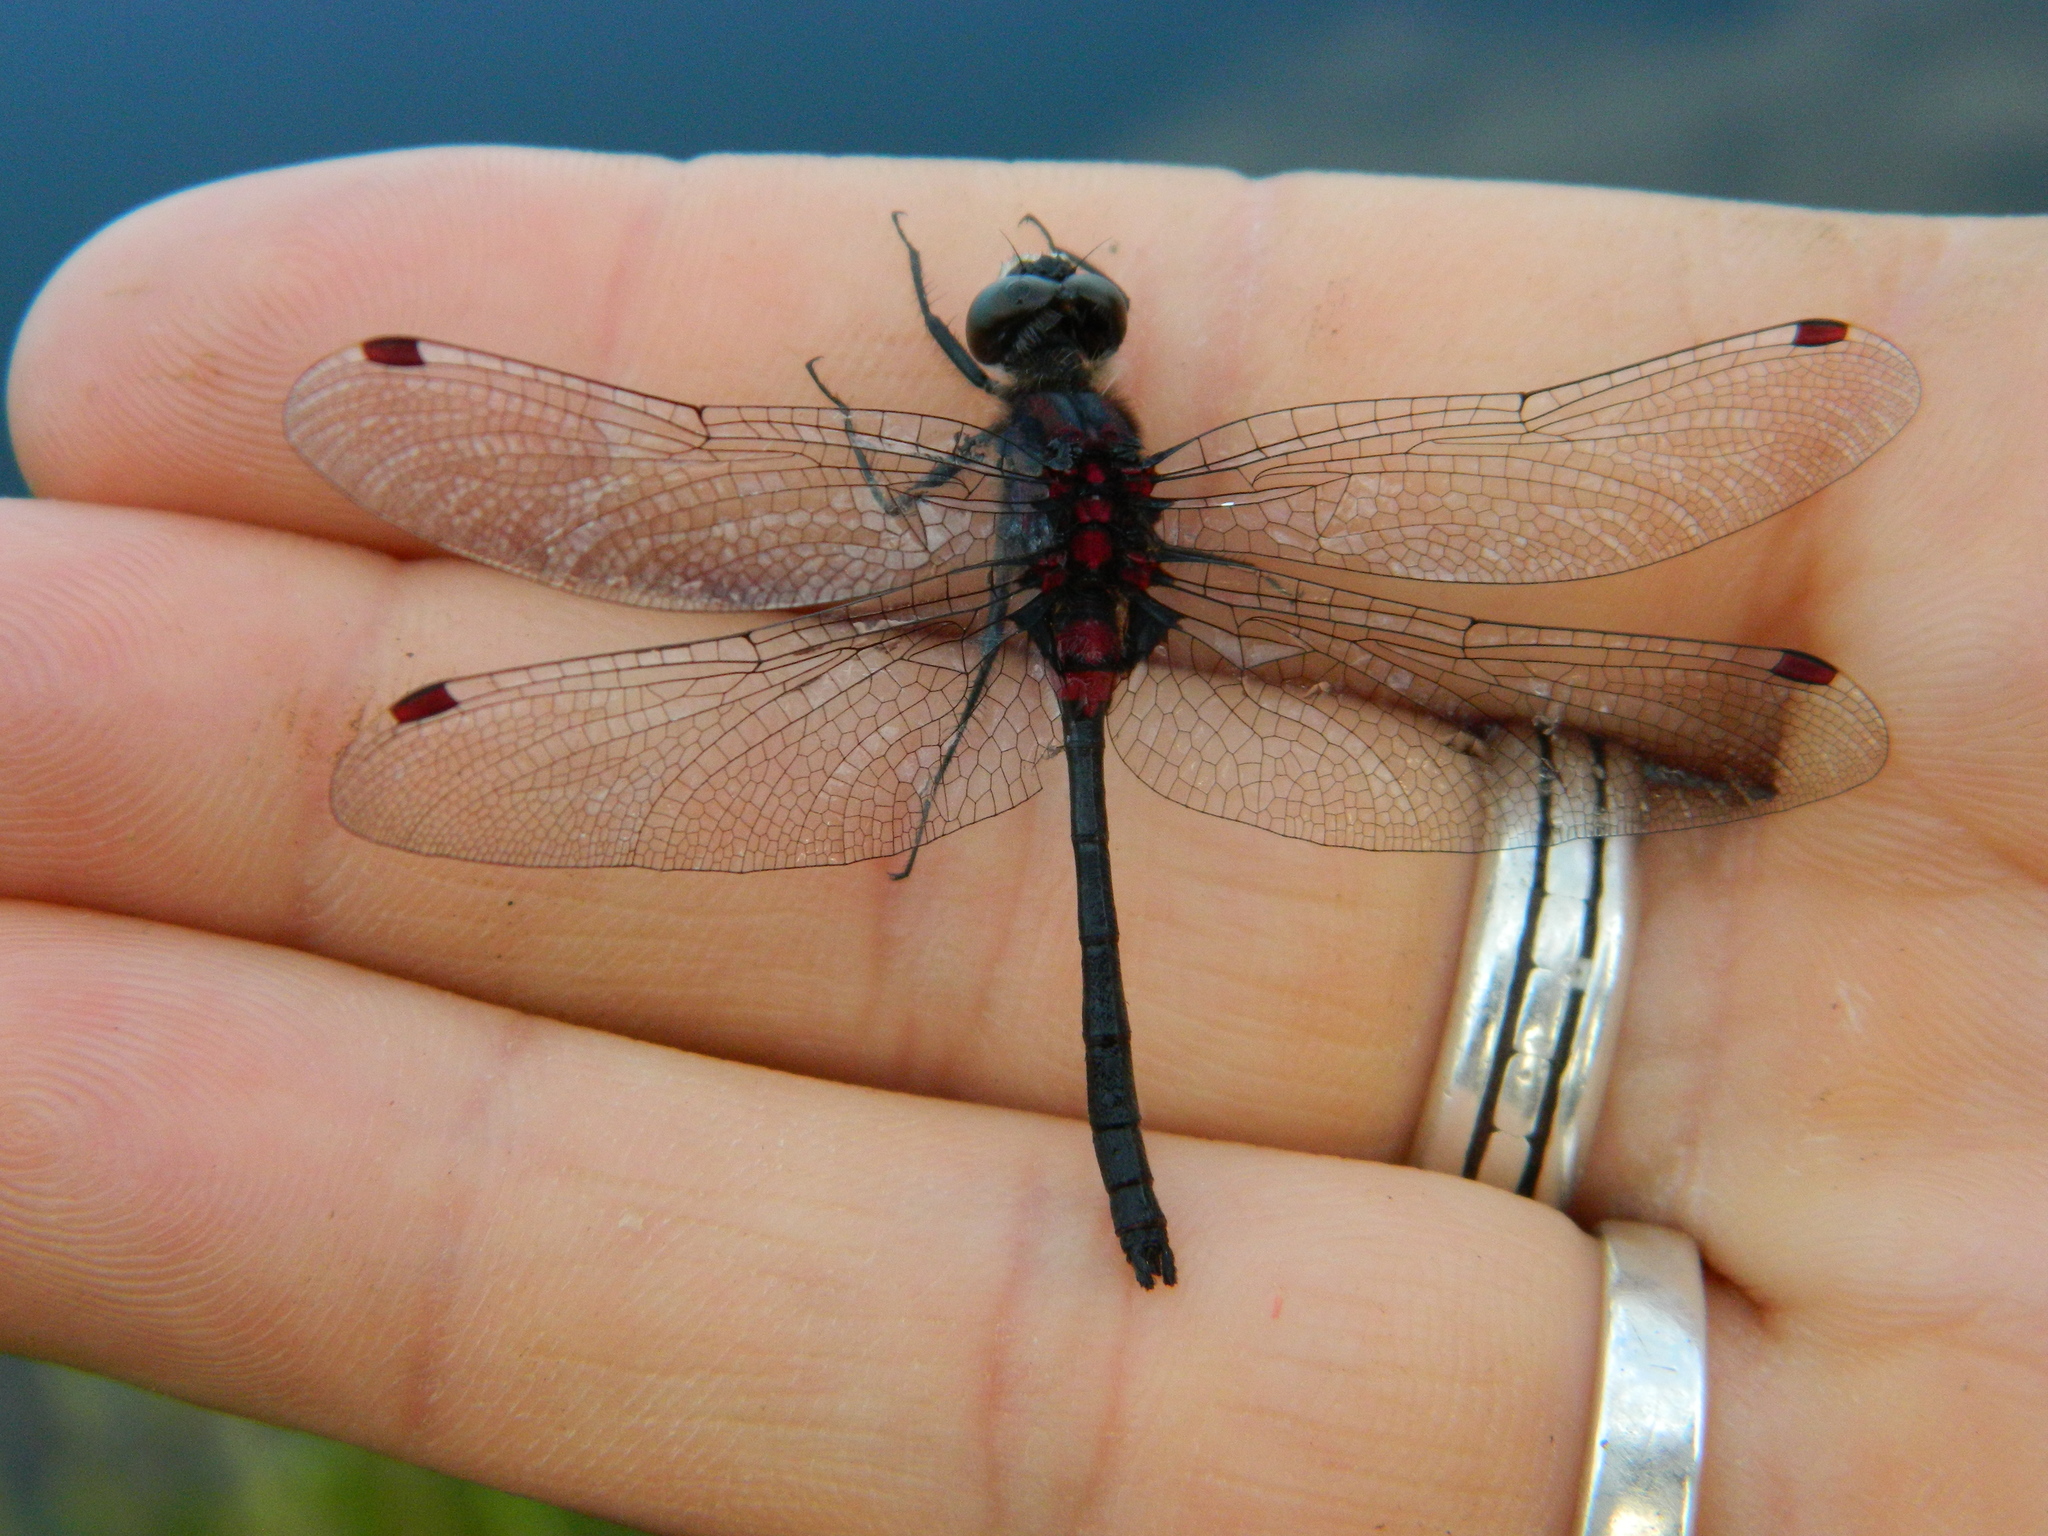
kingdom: Animalia
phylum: Arthropoda
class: Insecta
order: Odonata
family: Libellulidae
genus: Leucorrhinia
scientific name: Leucorrhinia glacialis
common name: Crimson-ringed whiteface
